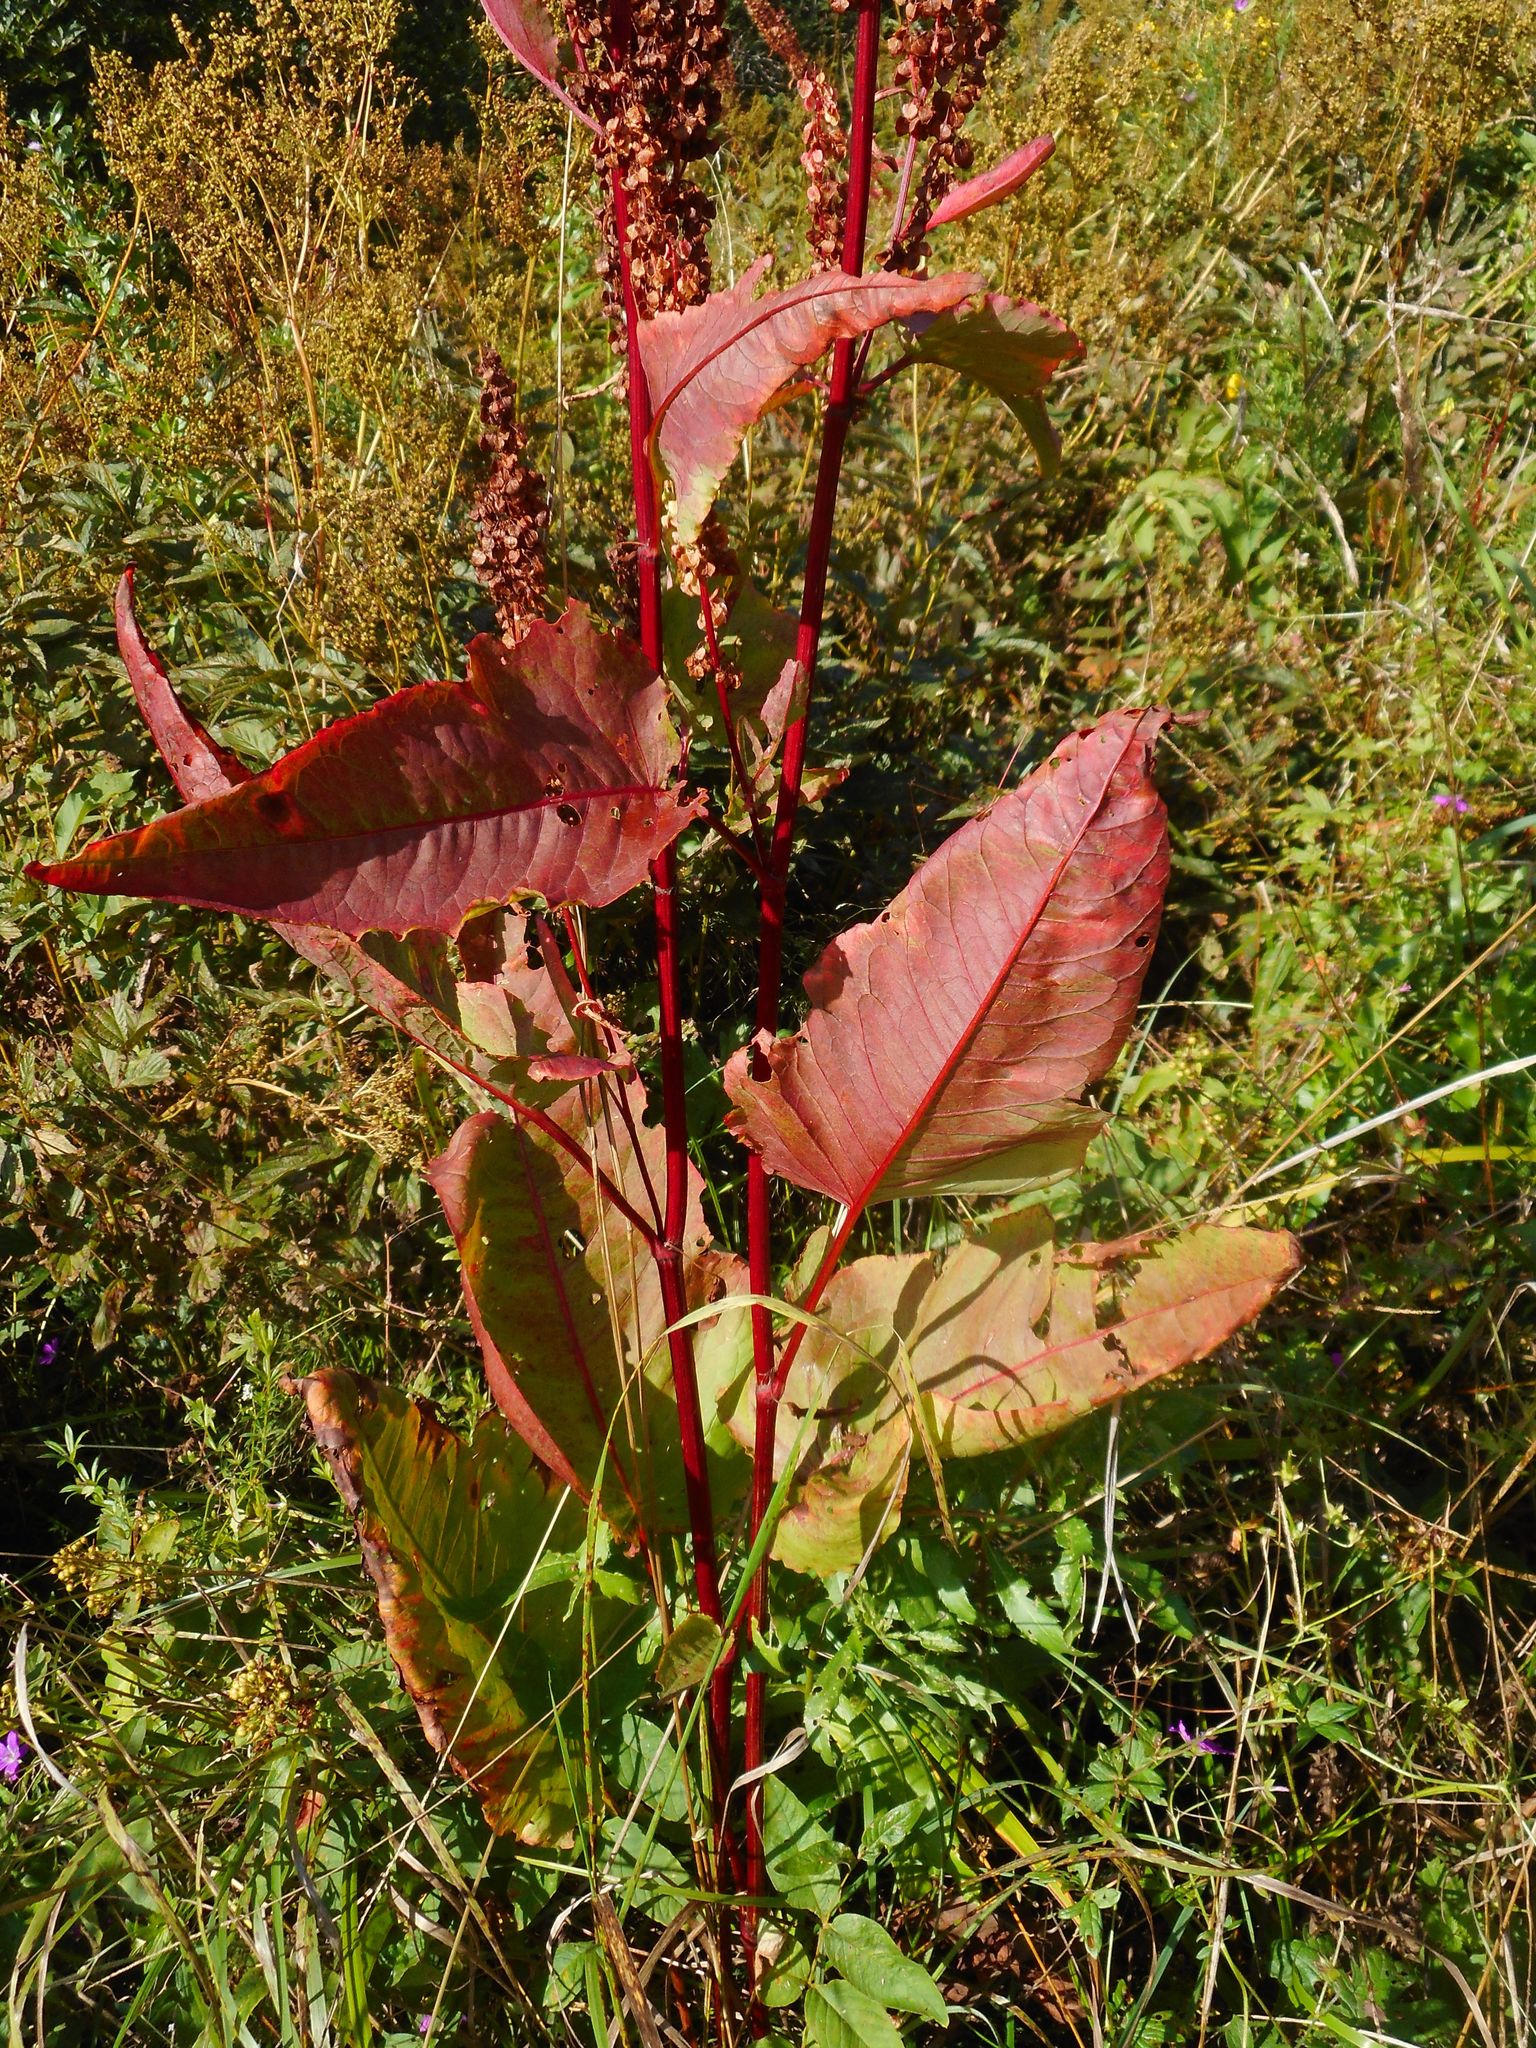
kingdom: Plantae
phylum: Tracheophyta
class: Magnoliopsida
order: Caryophyllales
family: Polygonaceae
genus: Rumex
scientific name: Rumex aquaticus
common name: Scottish dock
